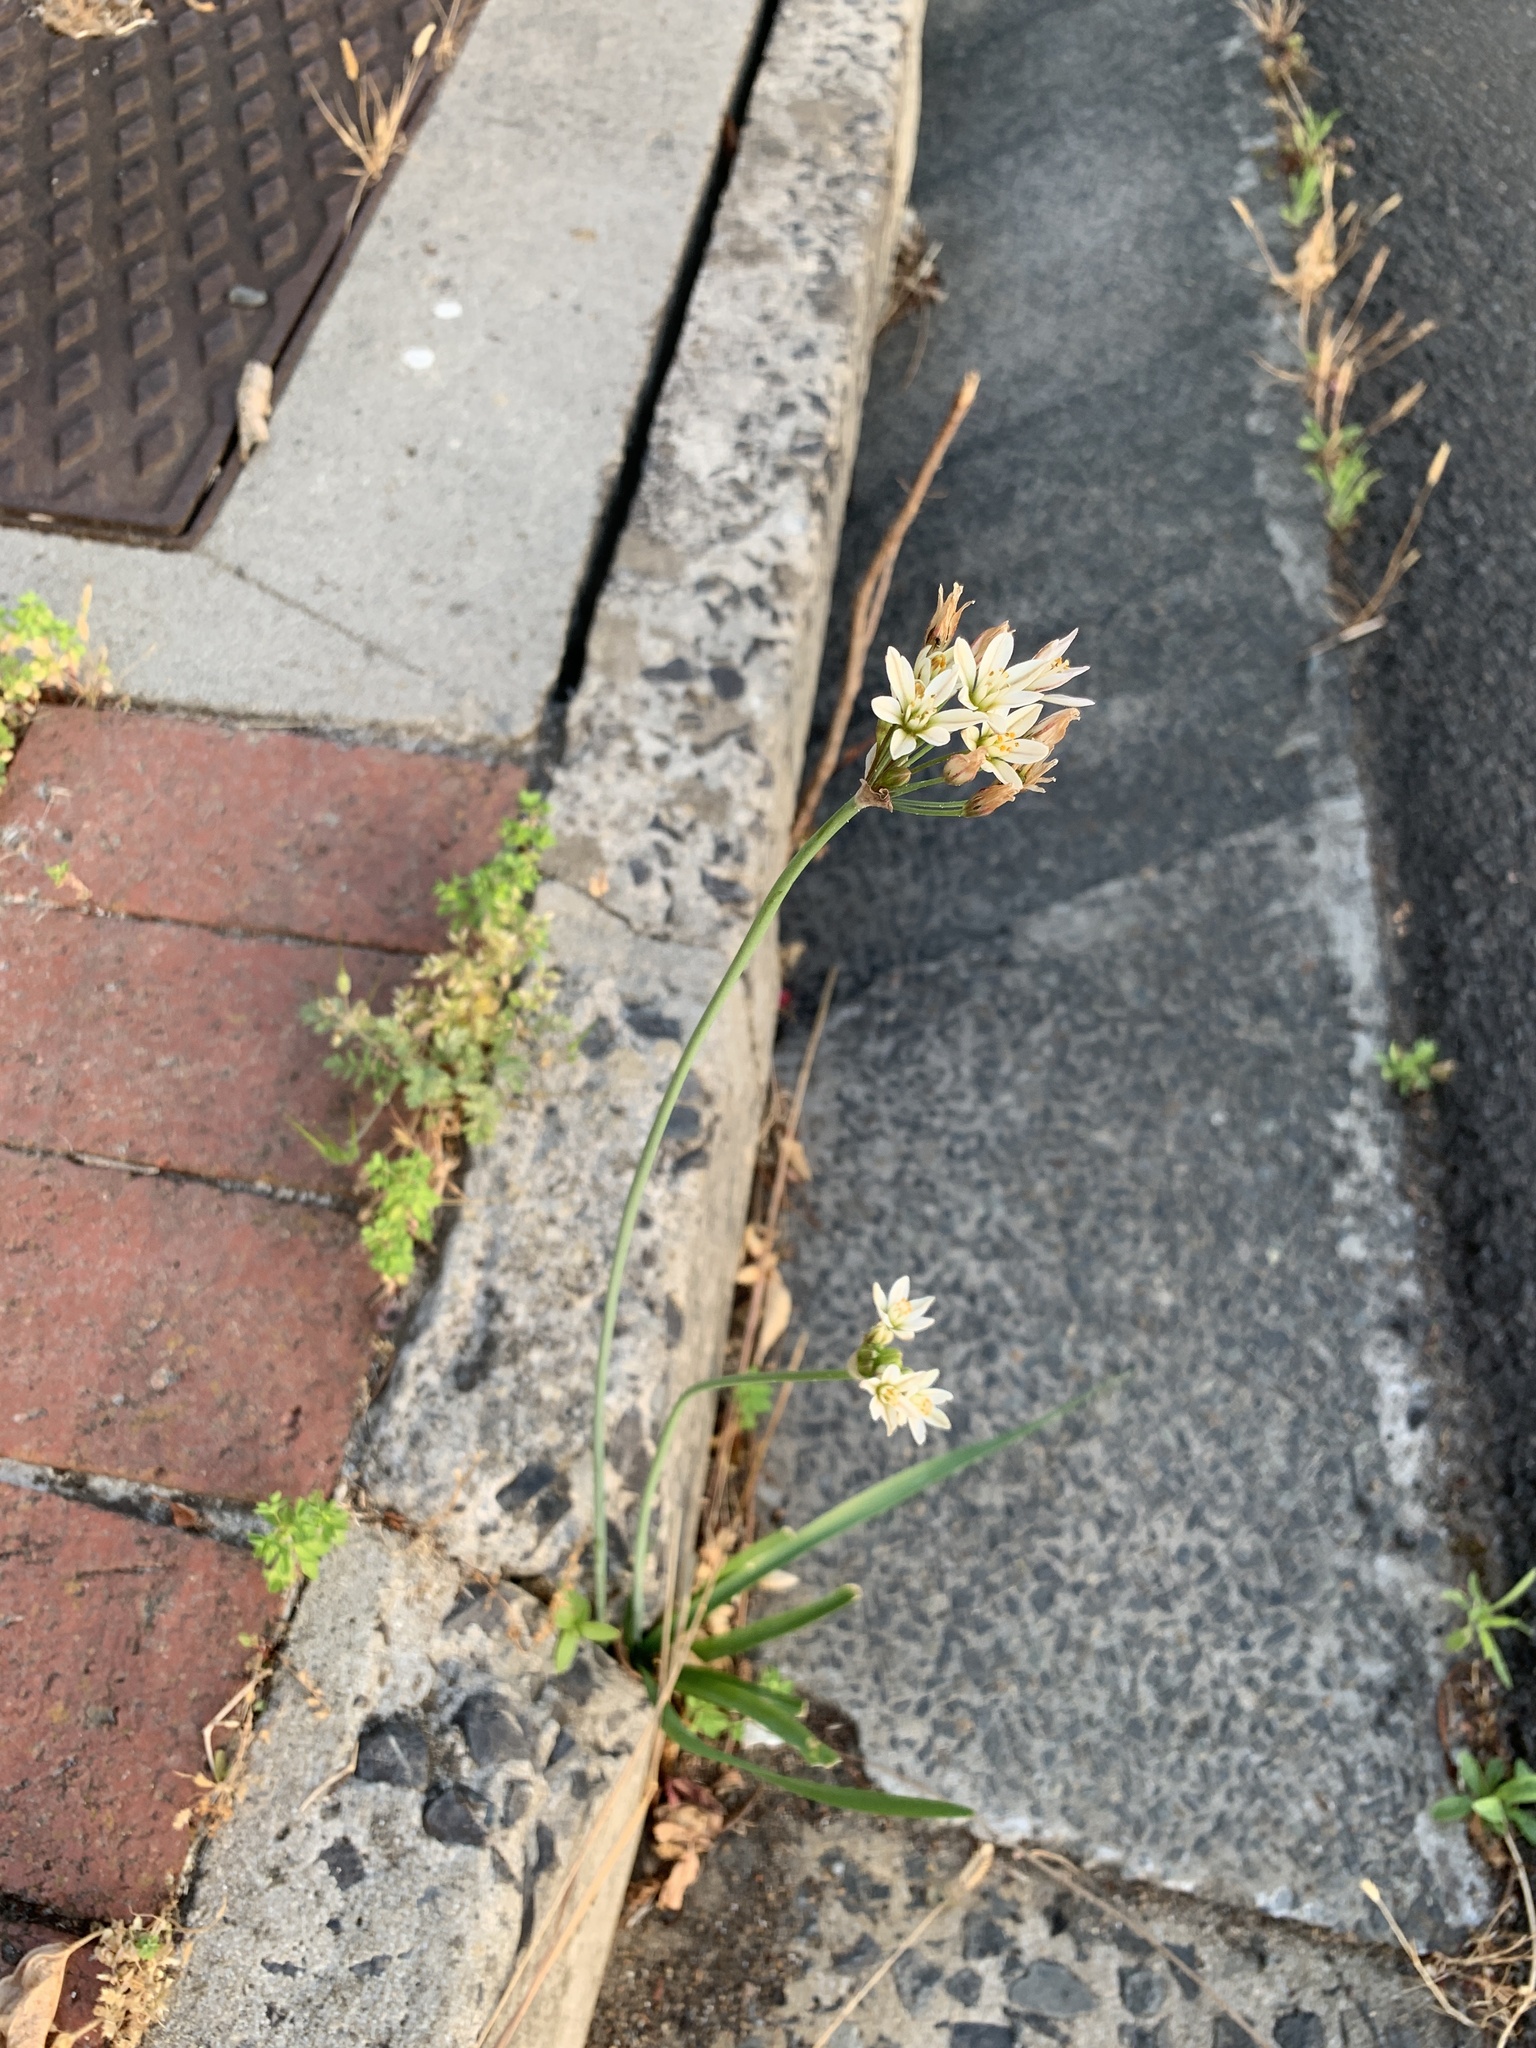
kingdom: Plantae
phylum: Tracheophyta
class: Liliopsida
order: Asparagales
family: Amaryllidaceae
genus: Nothoscordum
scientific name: Nothoscordum gracile
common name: Slender false garlic
